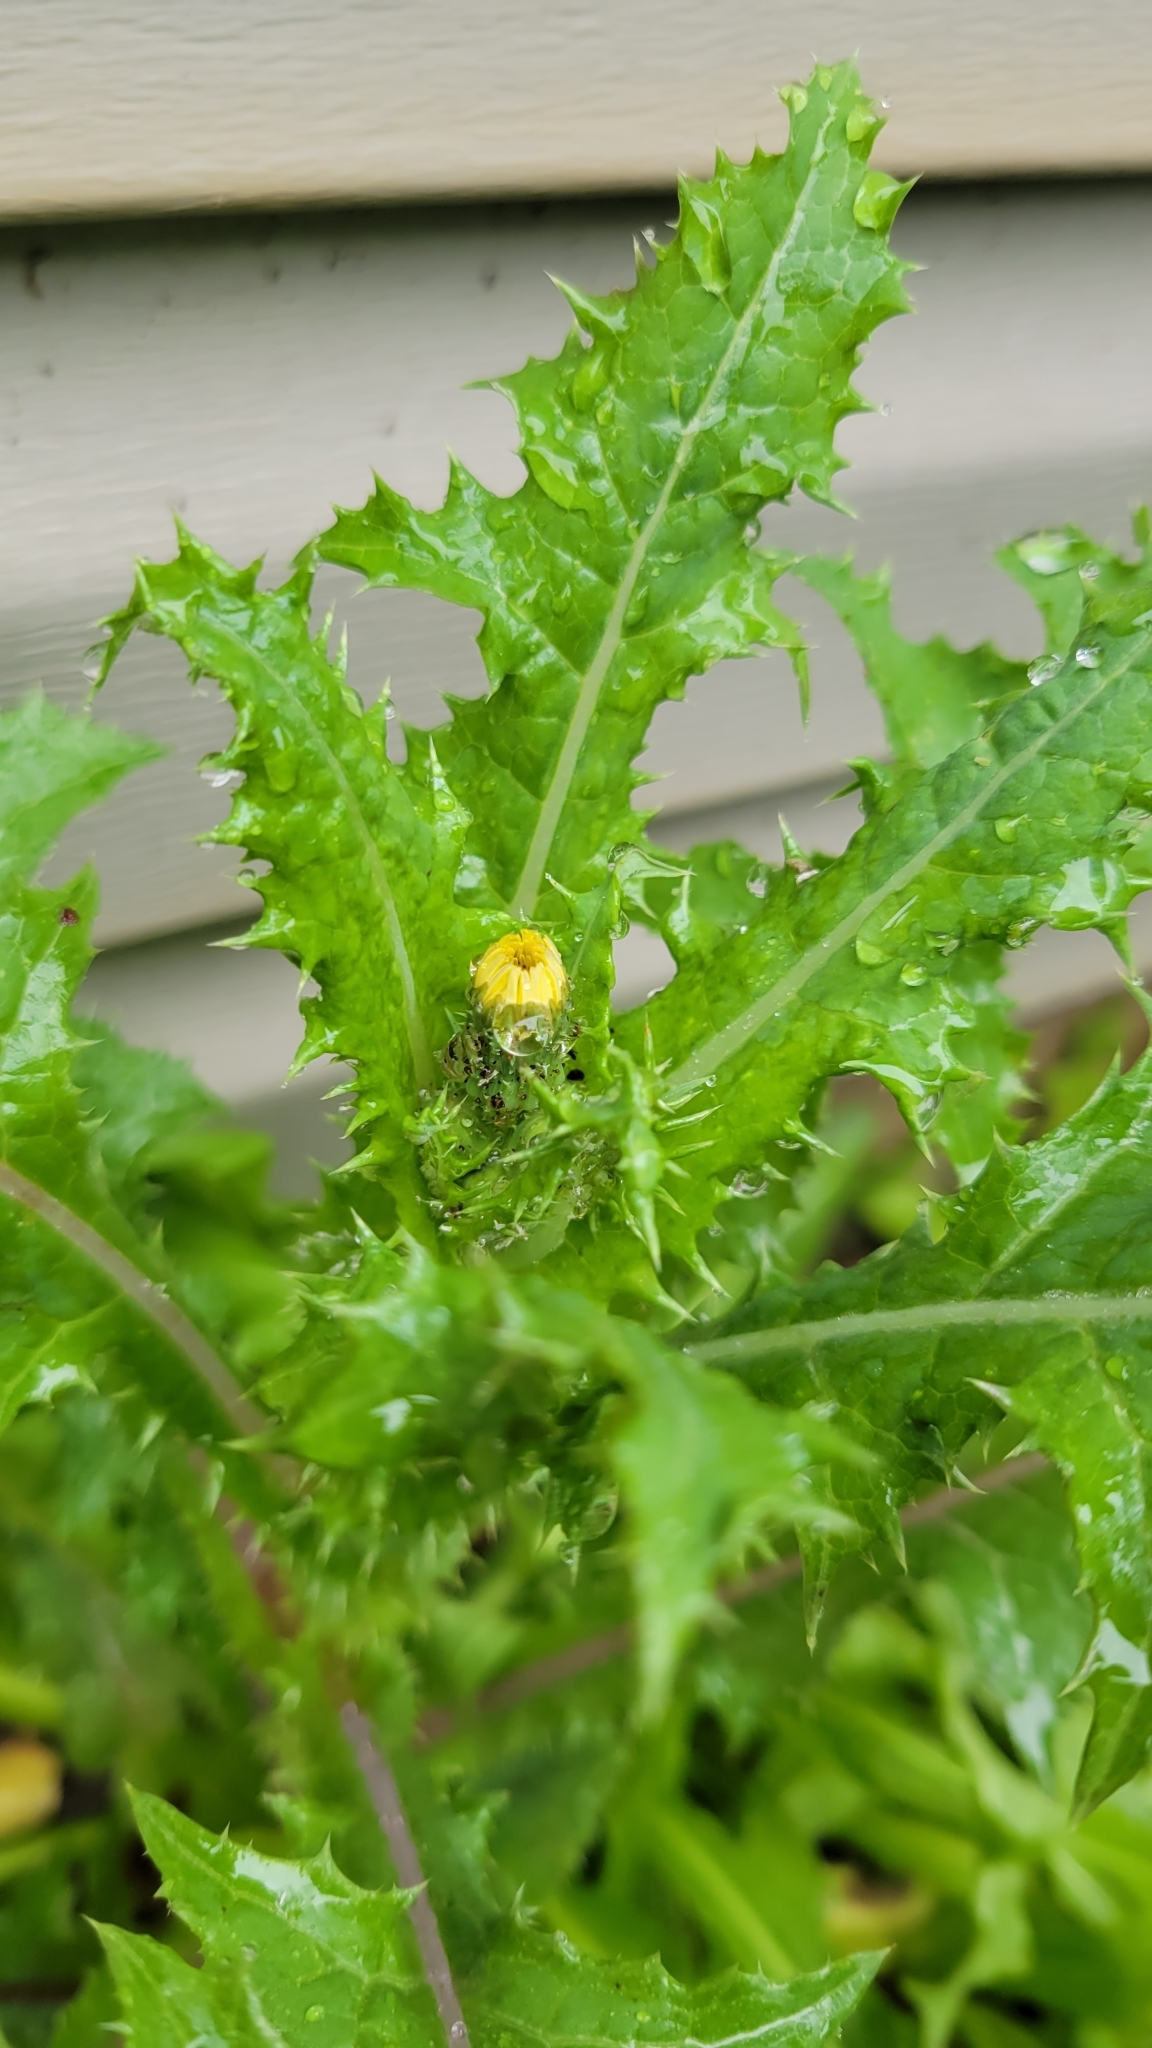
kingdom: Plantae
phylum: Tracheophyta
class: Magnoliopsida
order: Asterales
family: Asteraceae
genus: Sonchus
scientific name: Sonchus asper
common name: Prickly sow-thistle
